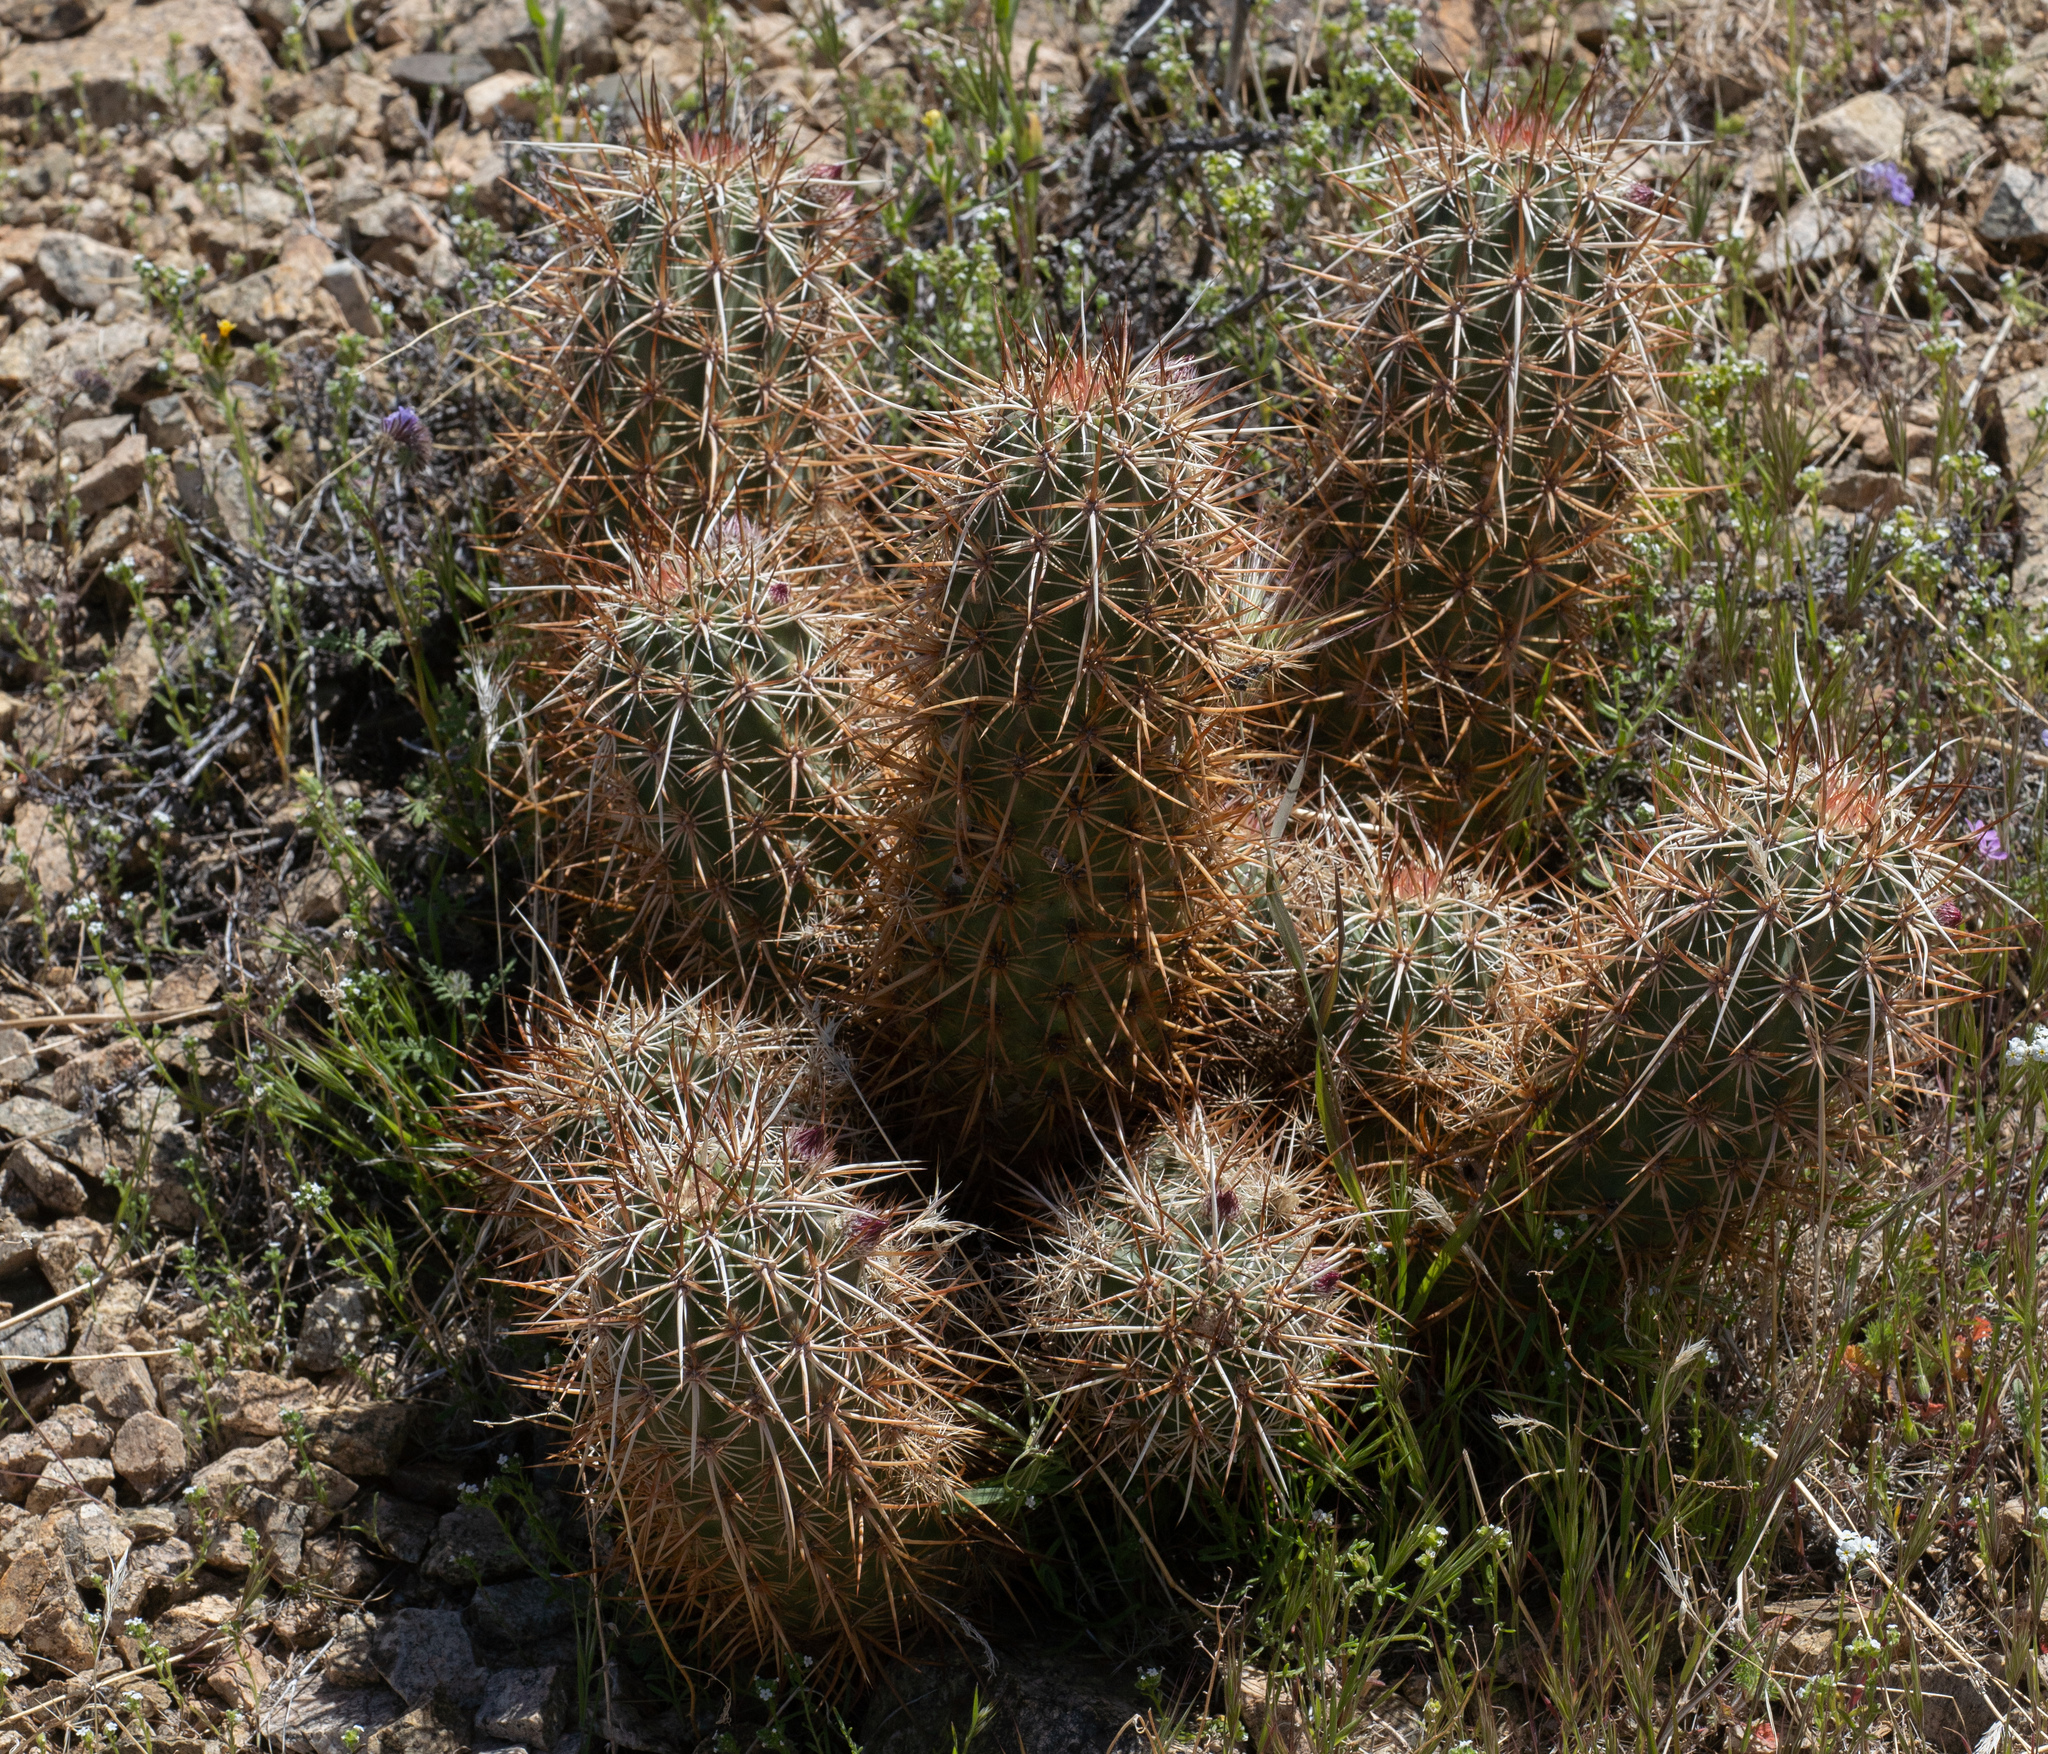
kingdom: Plantae
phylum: Tracheophyta
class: Magnoliopsida
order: Caryophyllales
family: Cactaceae
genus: Echinocereus
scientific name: Echinocereus engelmannii
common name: Engelmann's hedgehog cactus
